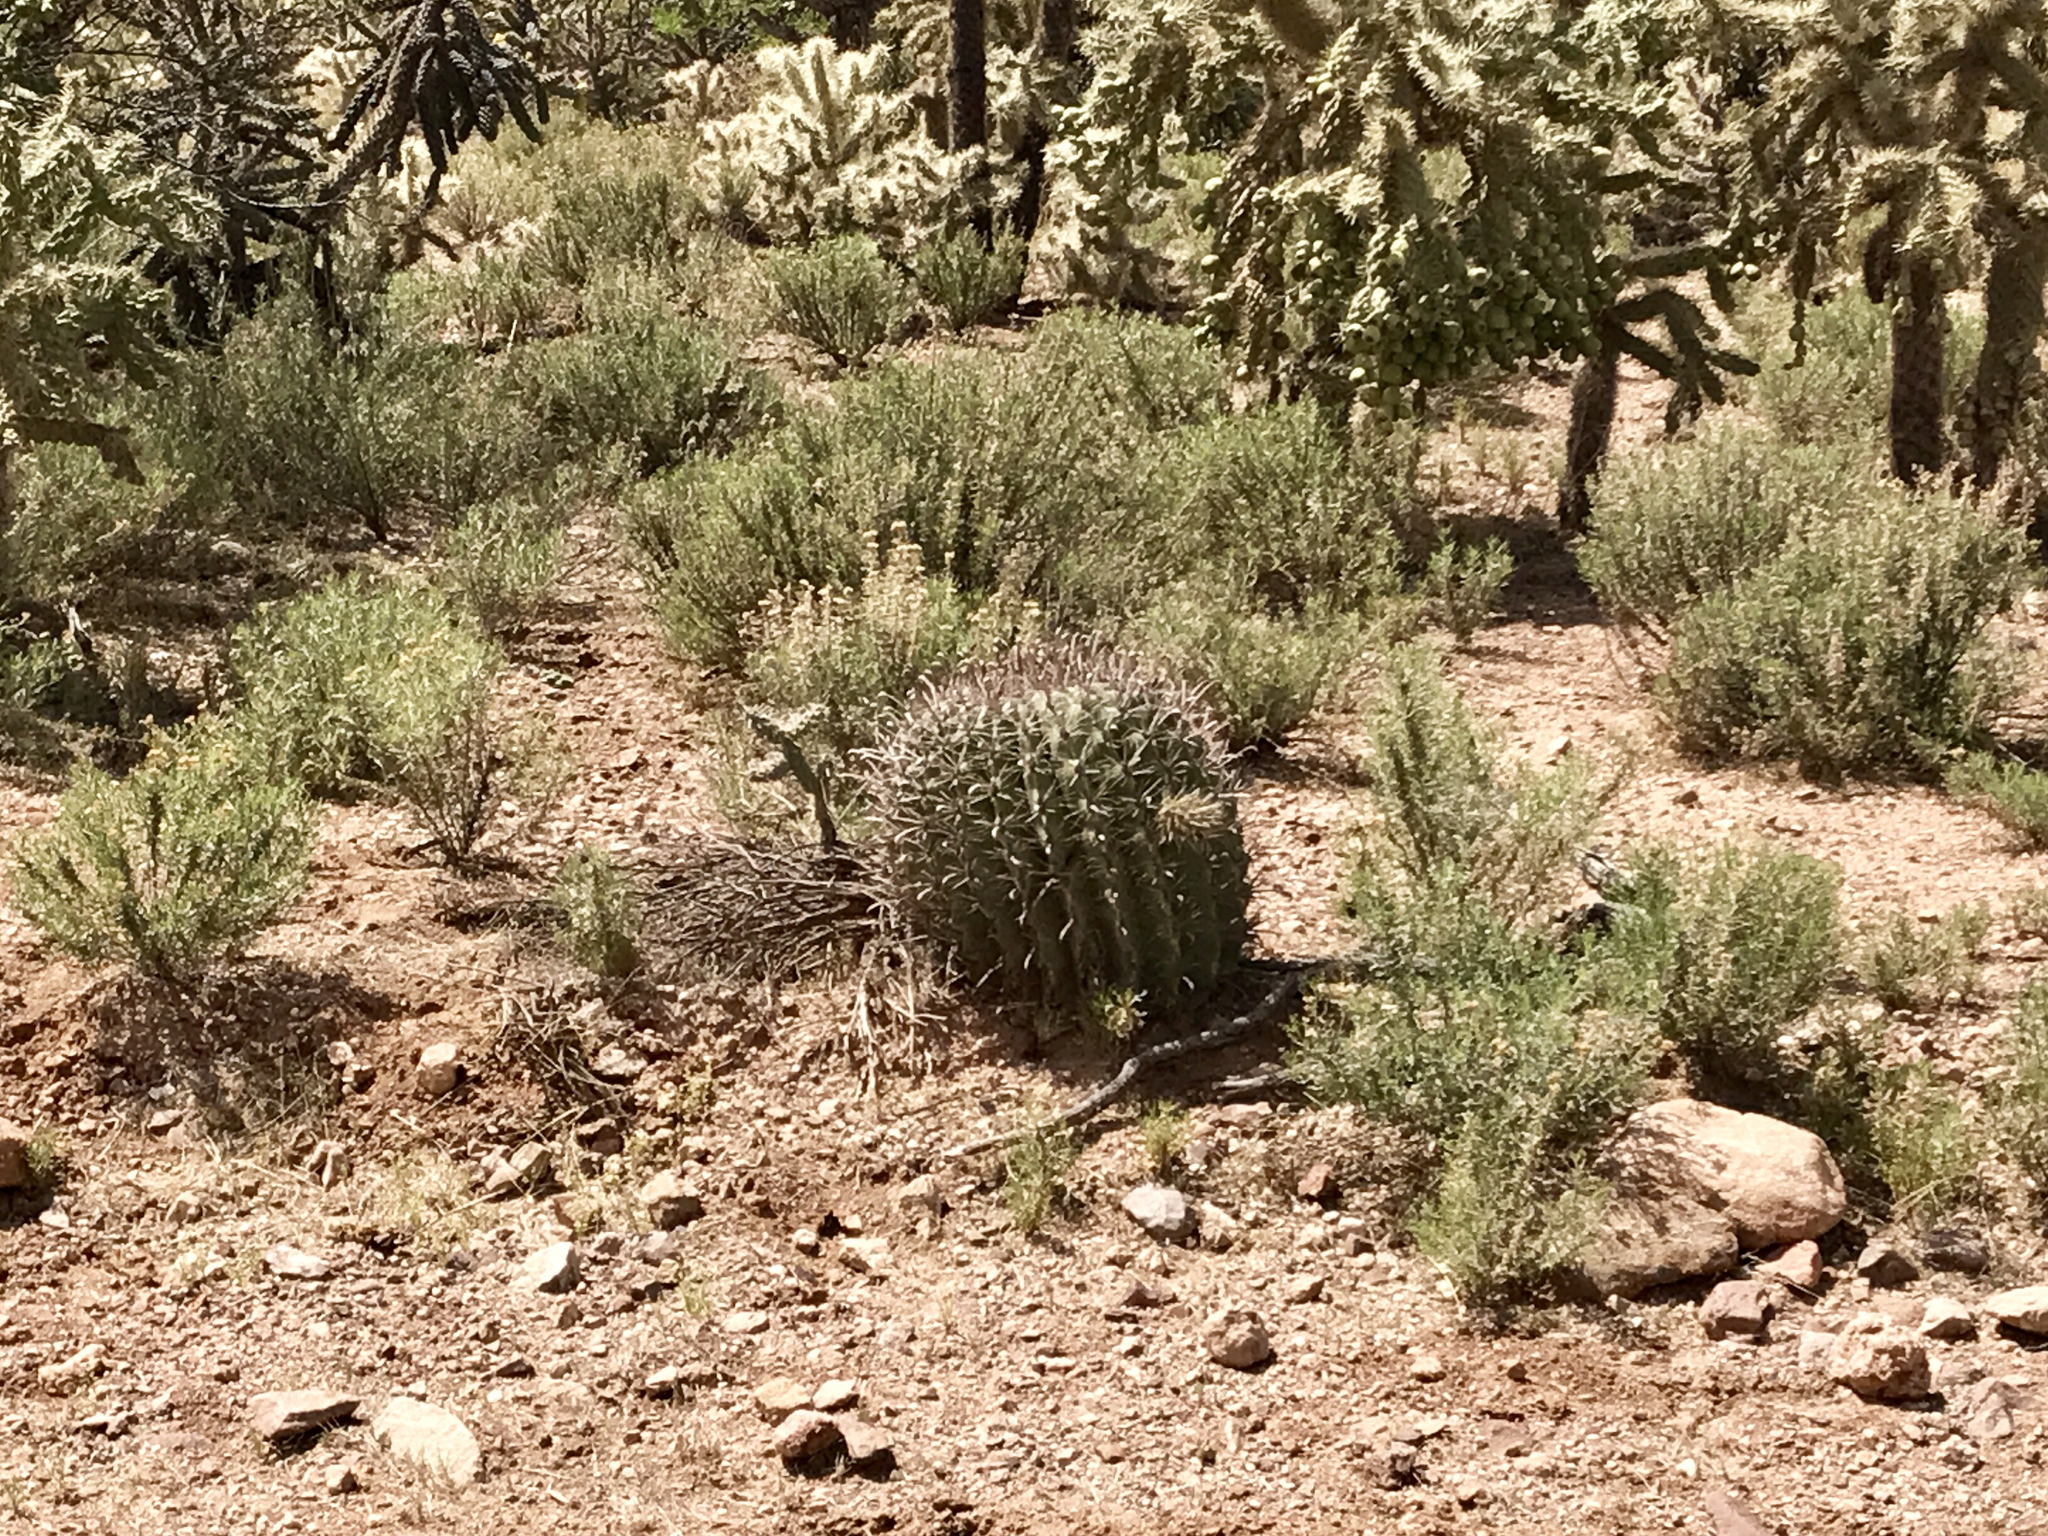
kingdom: Plantae
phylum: Tracheophyta
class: Magnoliopsida
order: Caryophyllales
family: Cactaceae
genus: Ferocactus
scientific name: Ferocactus wislizeni
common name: Candy barrel cactus
